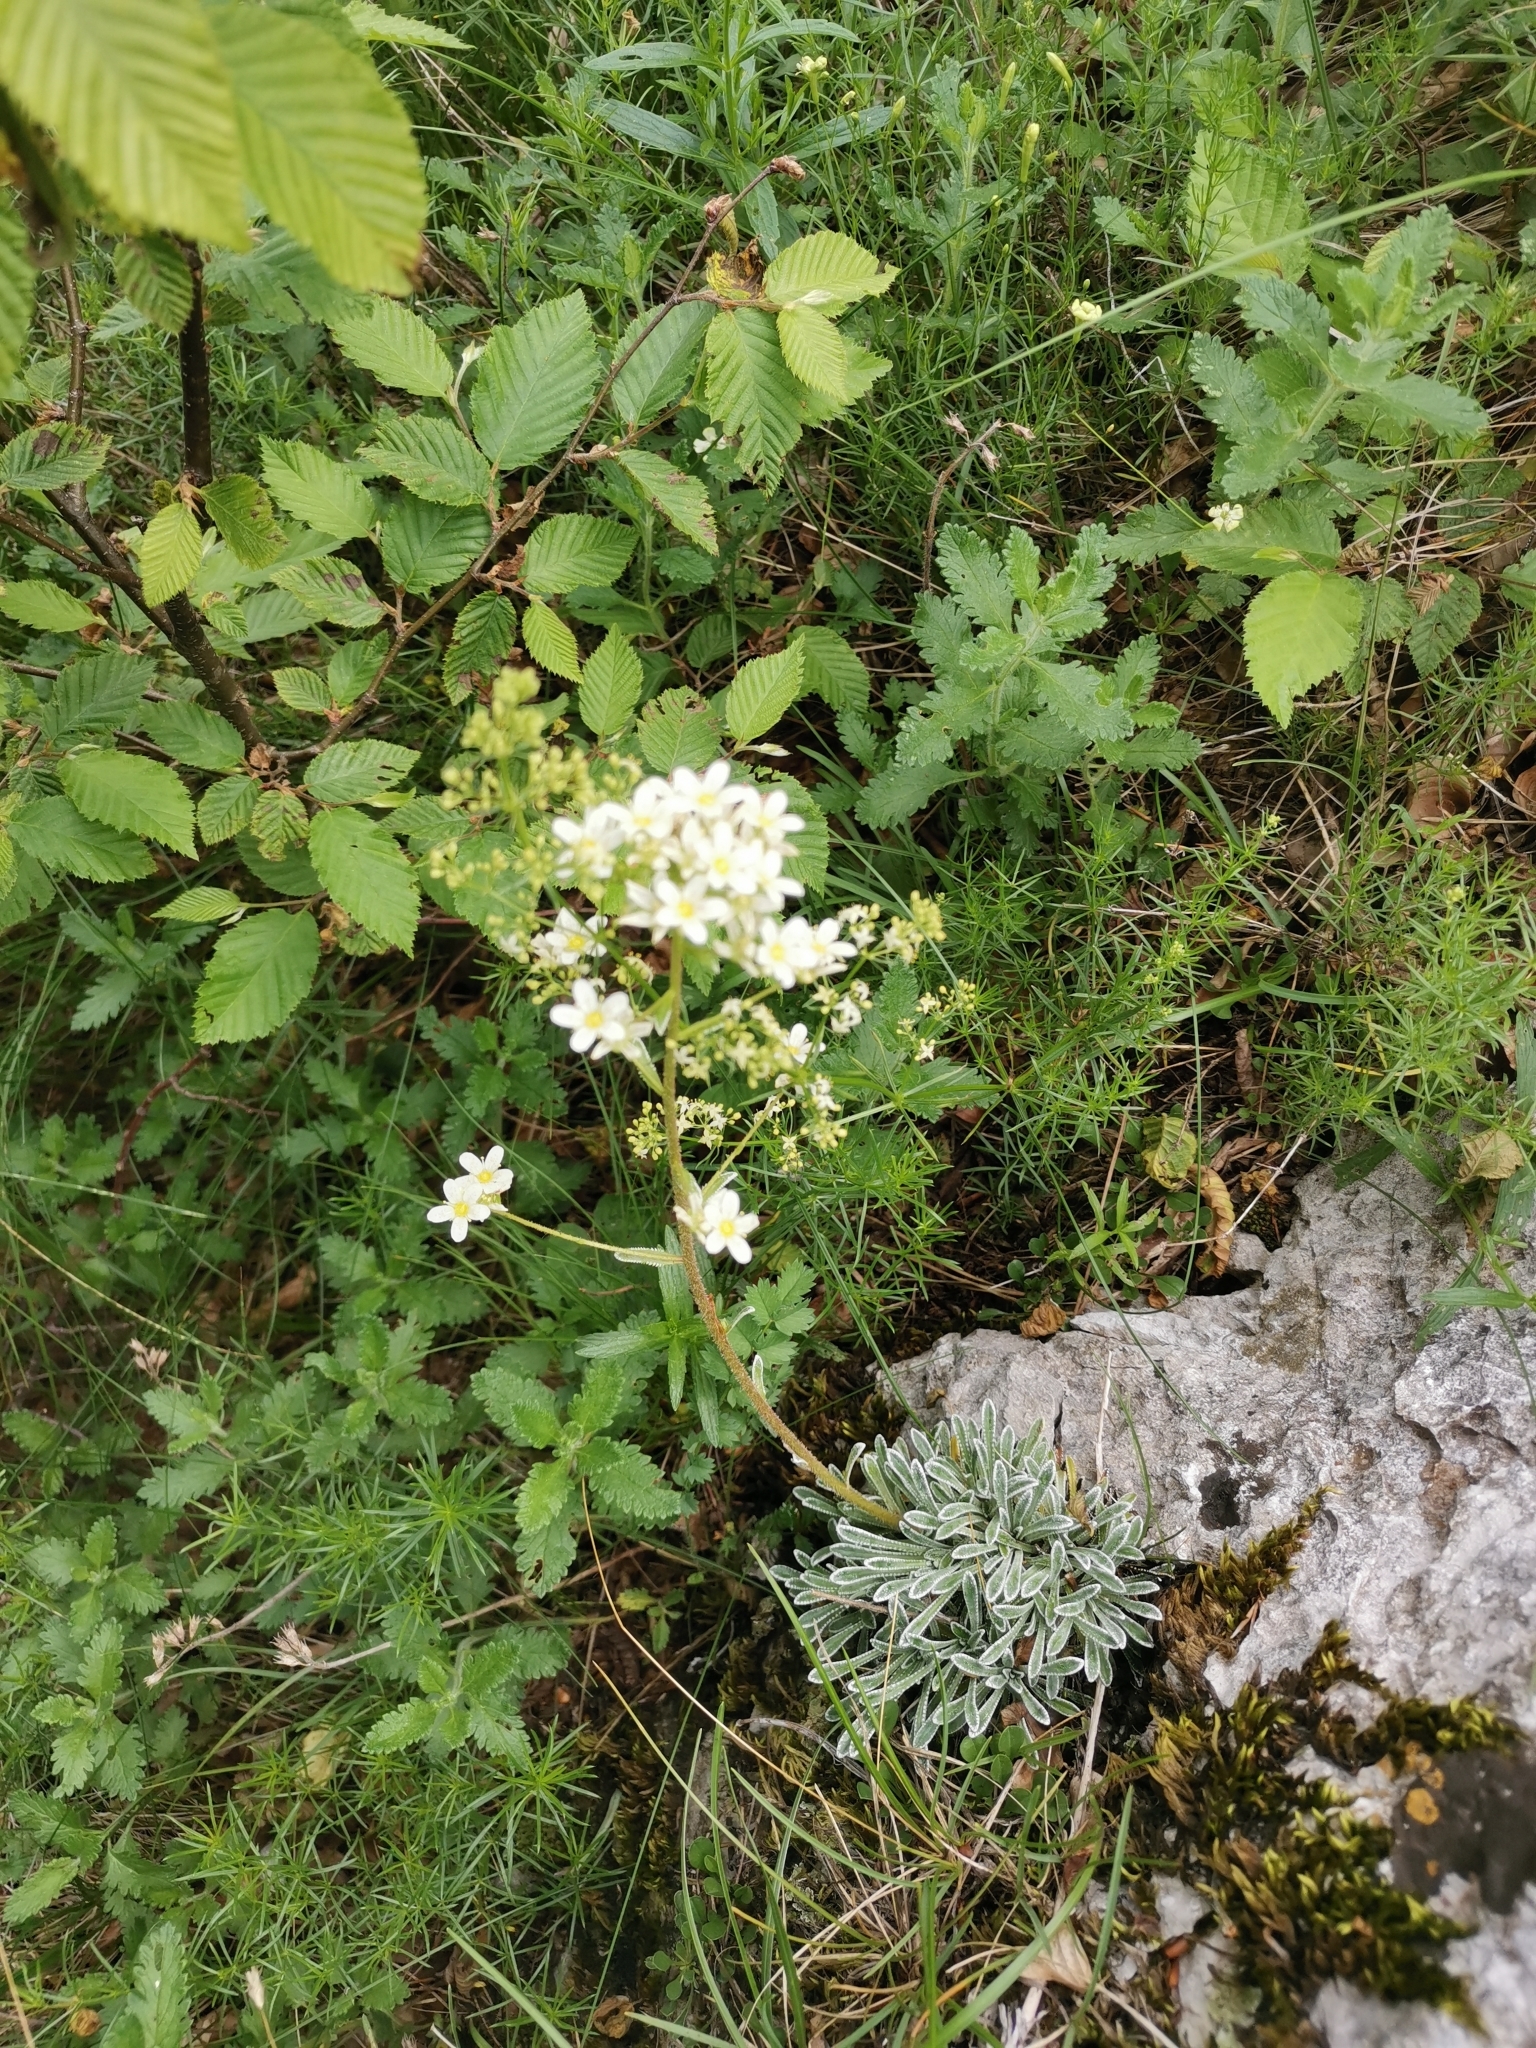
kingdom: Plantae
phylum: Tracheophyta
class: Magnoliopsida
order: Saxifragales
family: Saxifragaceae
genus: Saxifraga
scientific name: Saxifraga crustata
